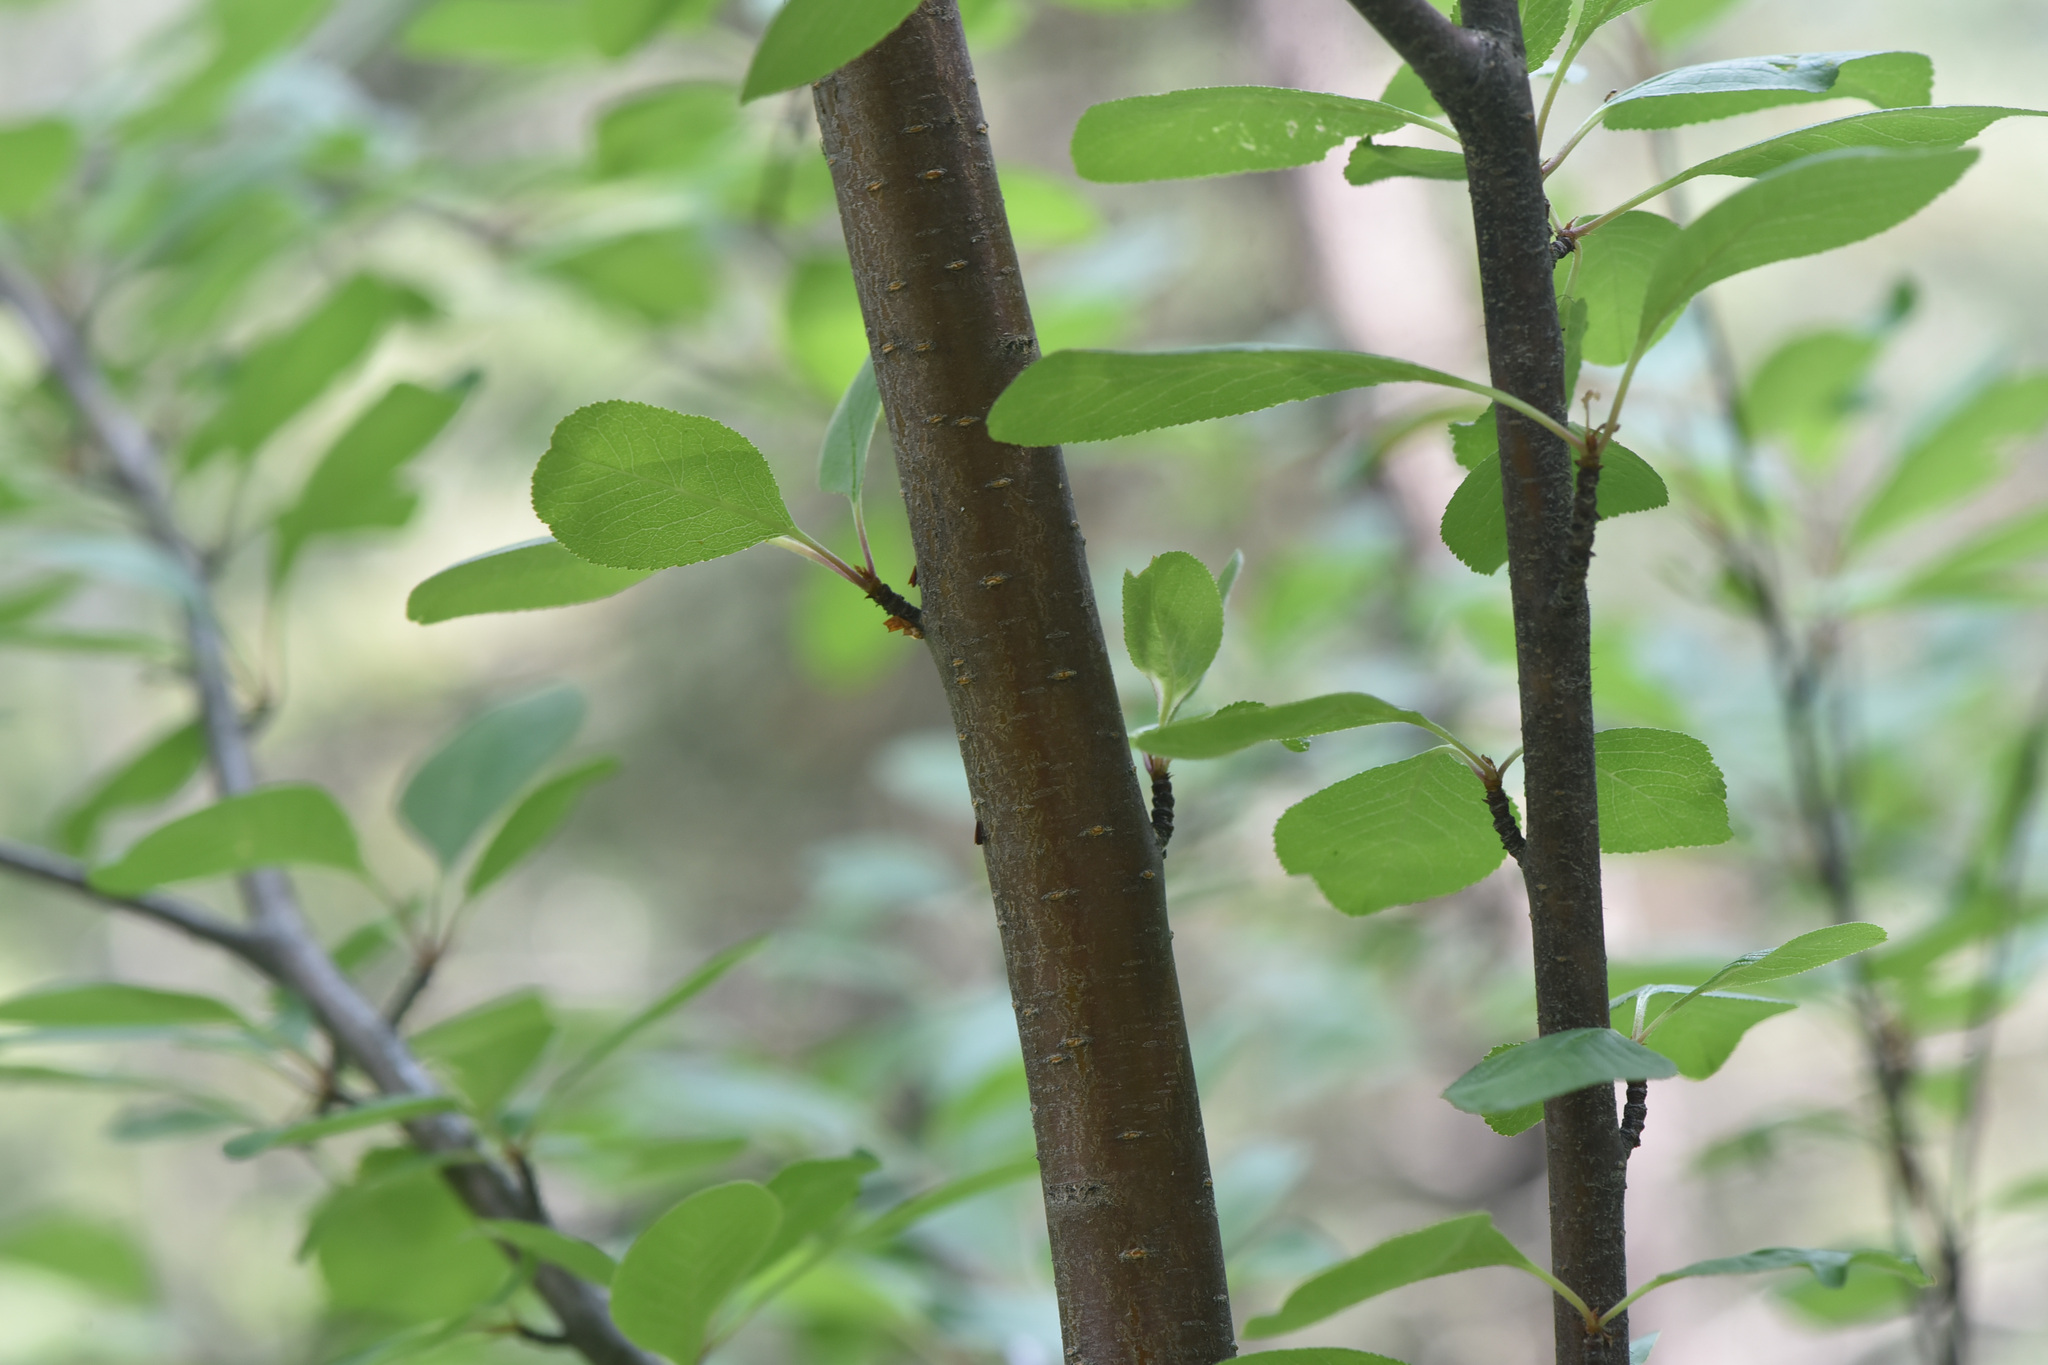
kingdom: Plantae
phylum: Tracheophyta
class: Magnoliopsida
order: Rosales
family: Rosaceae
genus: Prunus
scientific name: Prunus emarginata
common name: Bitter cherry
